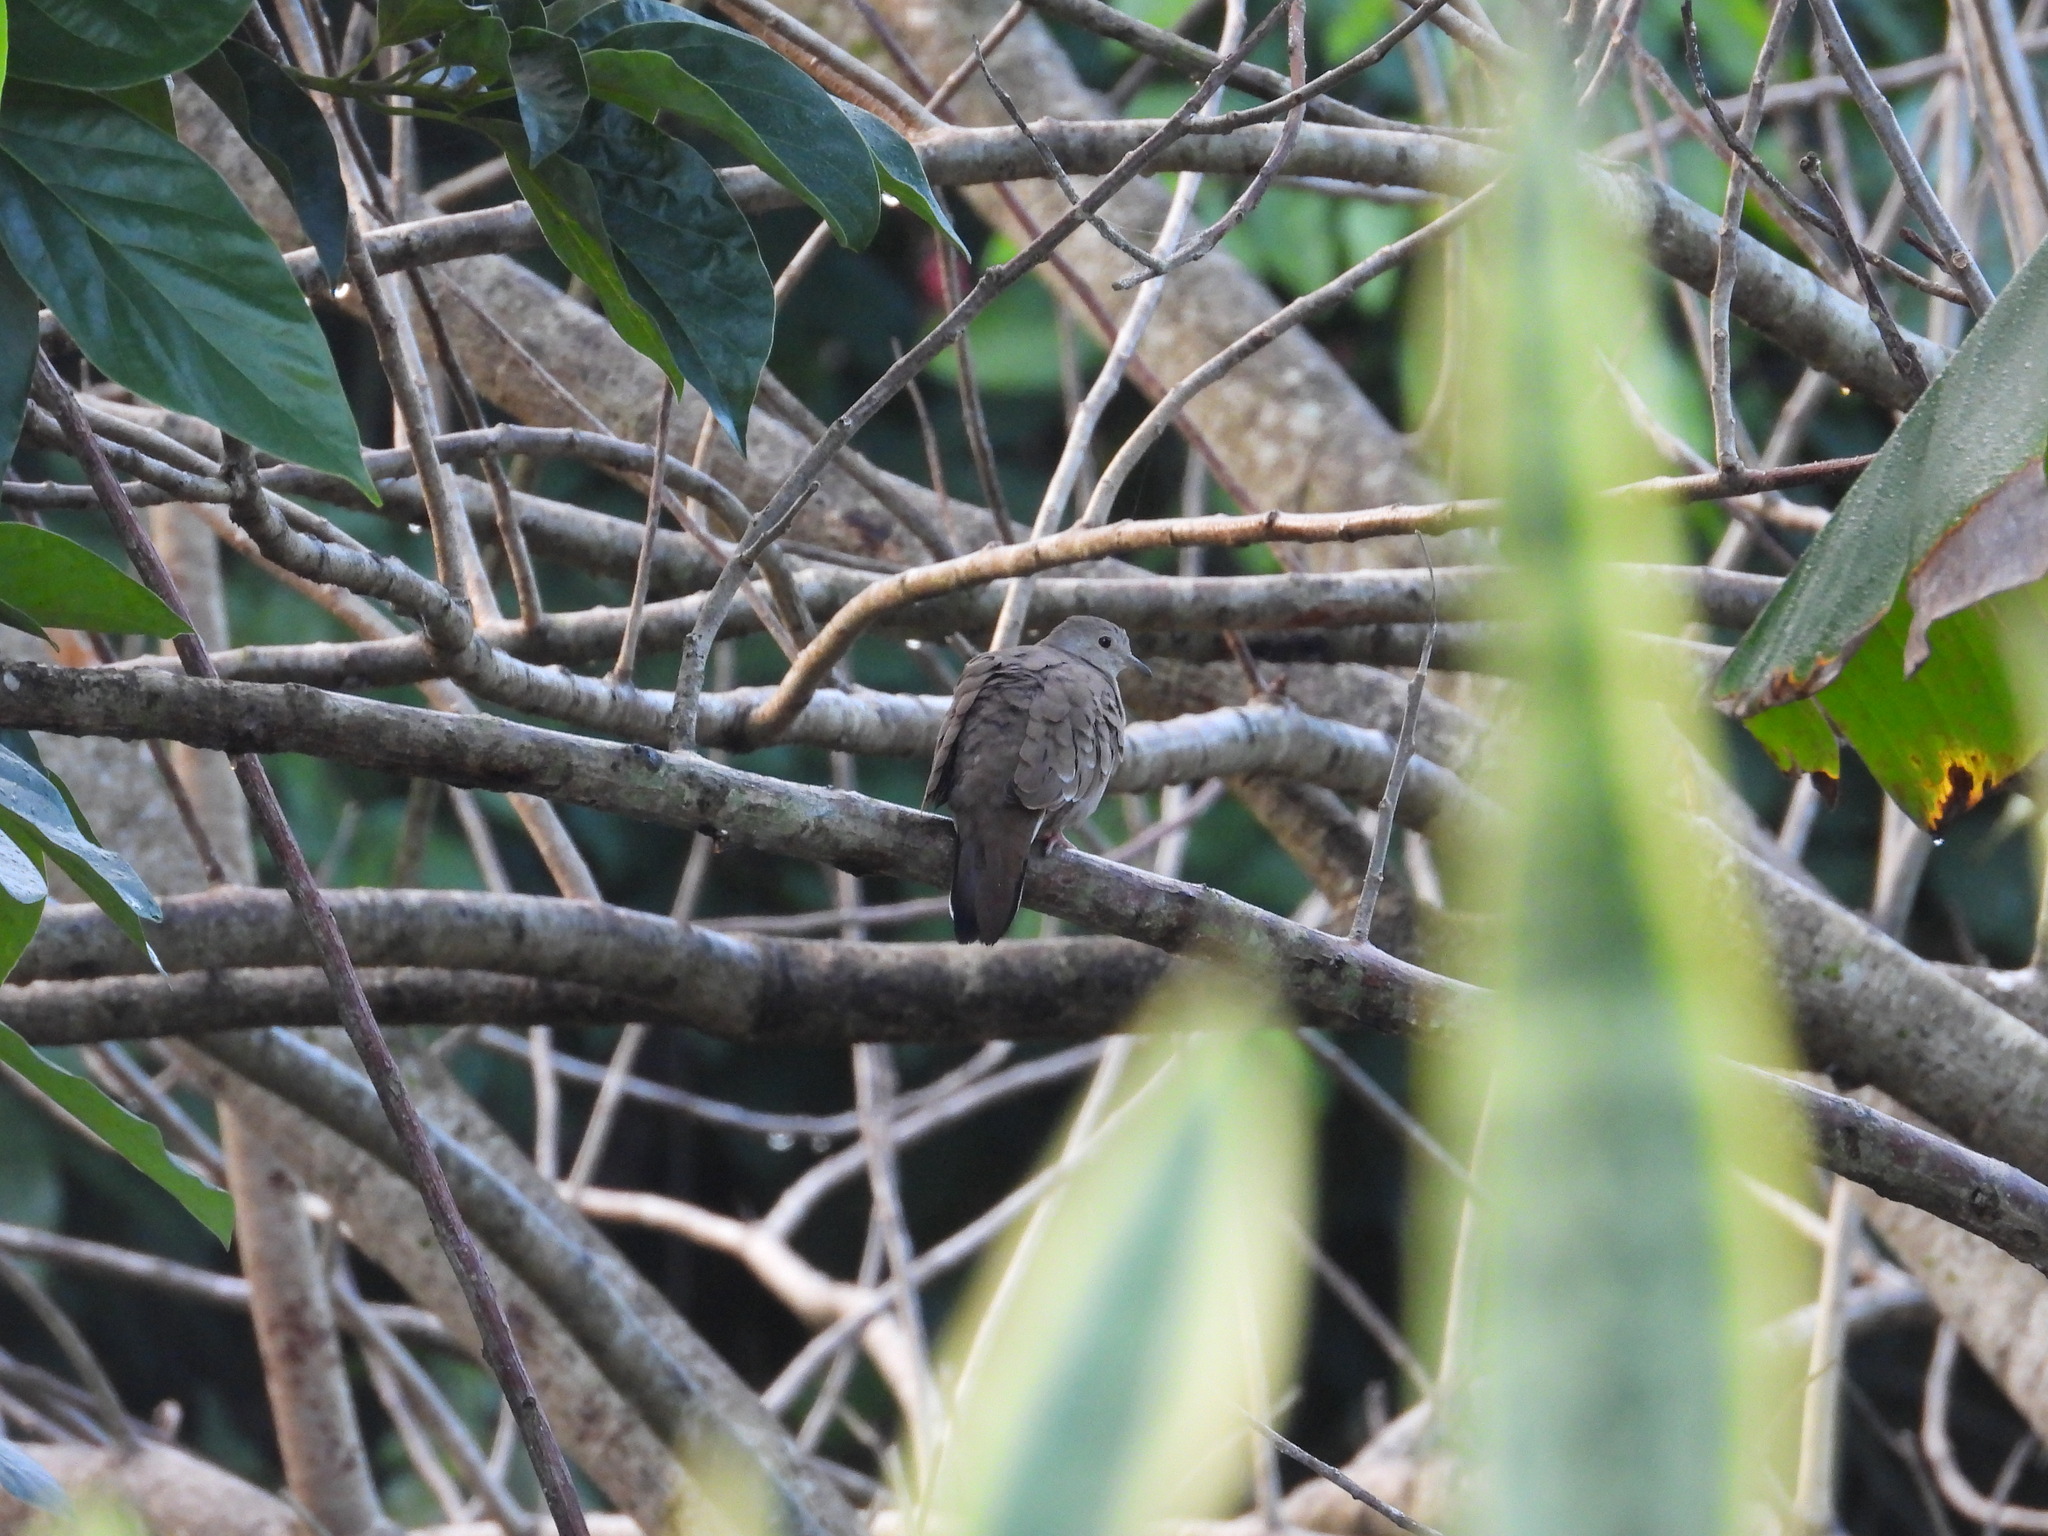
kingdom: Animalia
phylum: Chordata
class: Aves
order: Columbiformes
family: Columbidae
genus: Columbina
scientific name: Columbina talpacoti
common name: Ruddy ground dove
